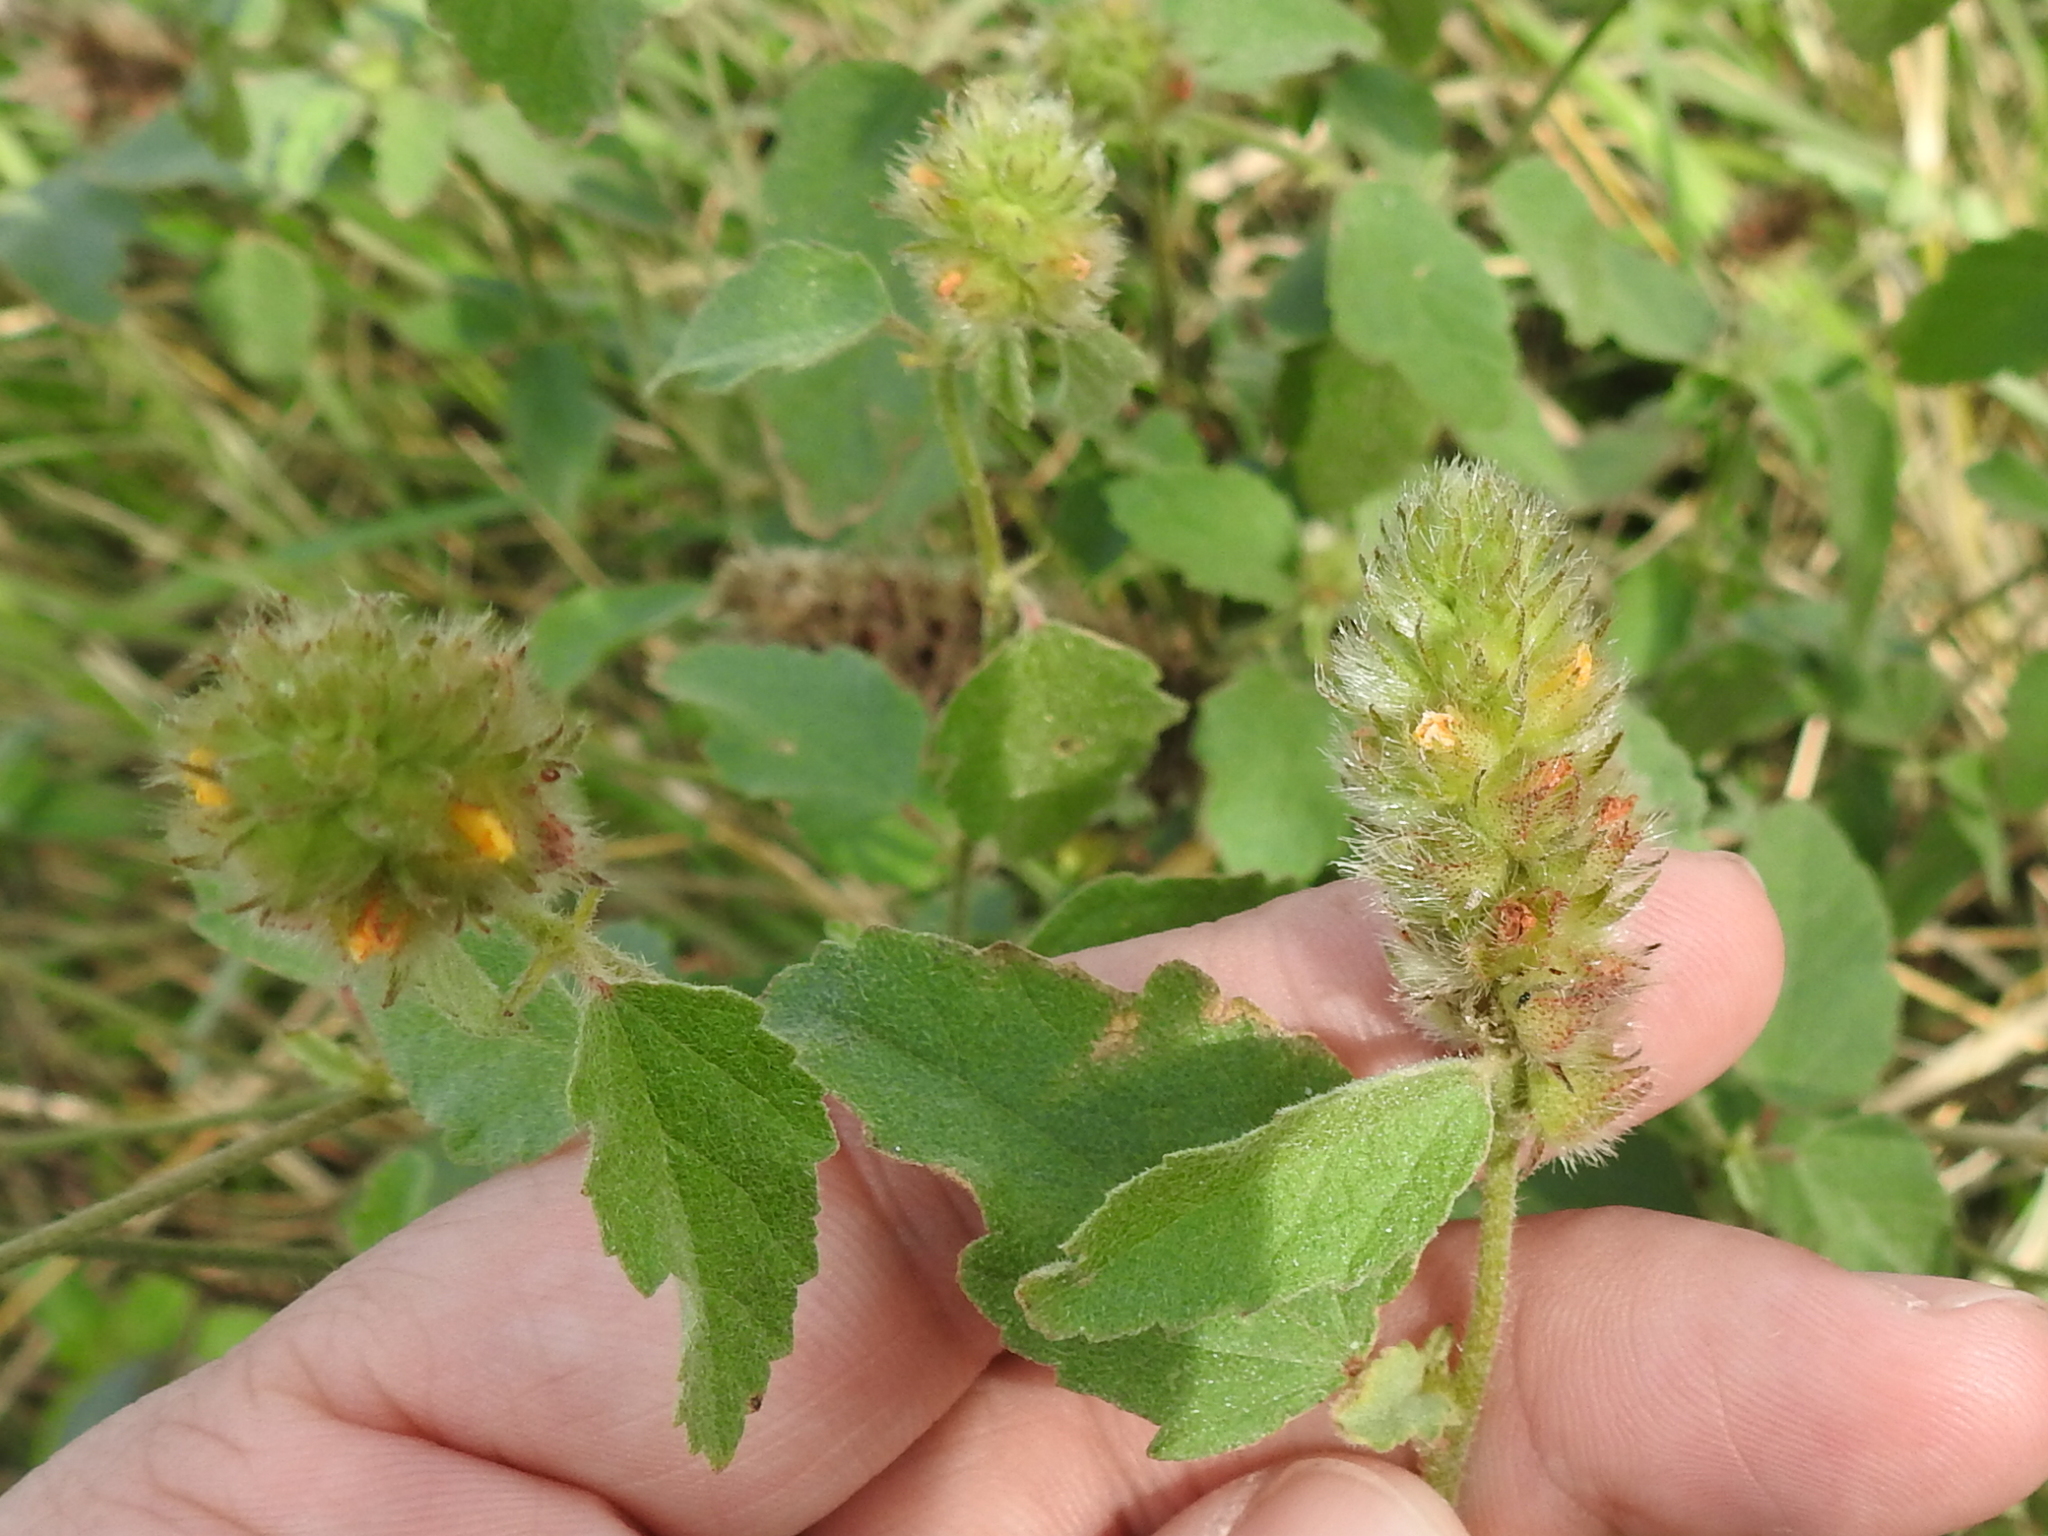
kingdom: Plantae
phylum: Tracheophyta
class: Magnoliopsida
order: Malvales
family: Malvaceae
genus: Malvastrum
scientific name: Malvastrum americanum
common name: Spiked malvastrum
